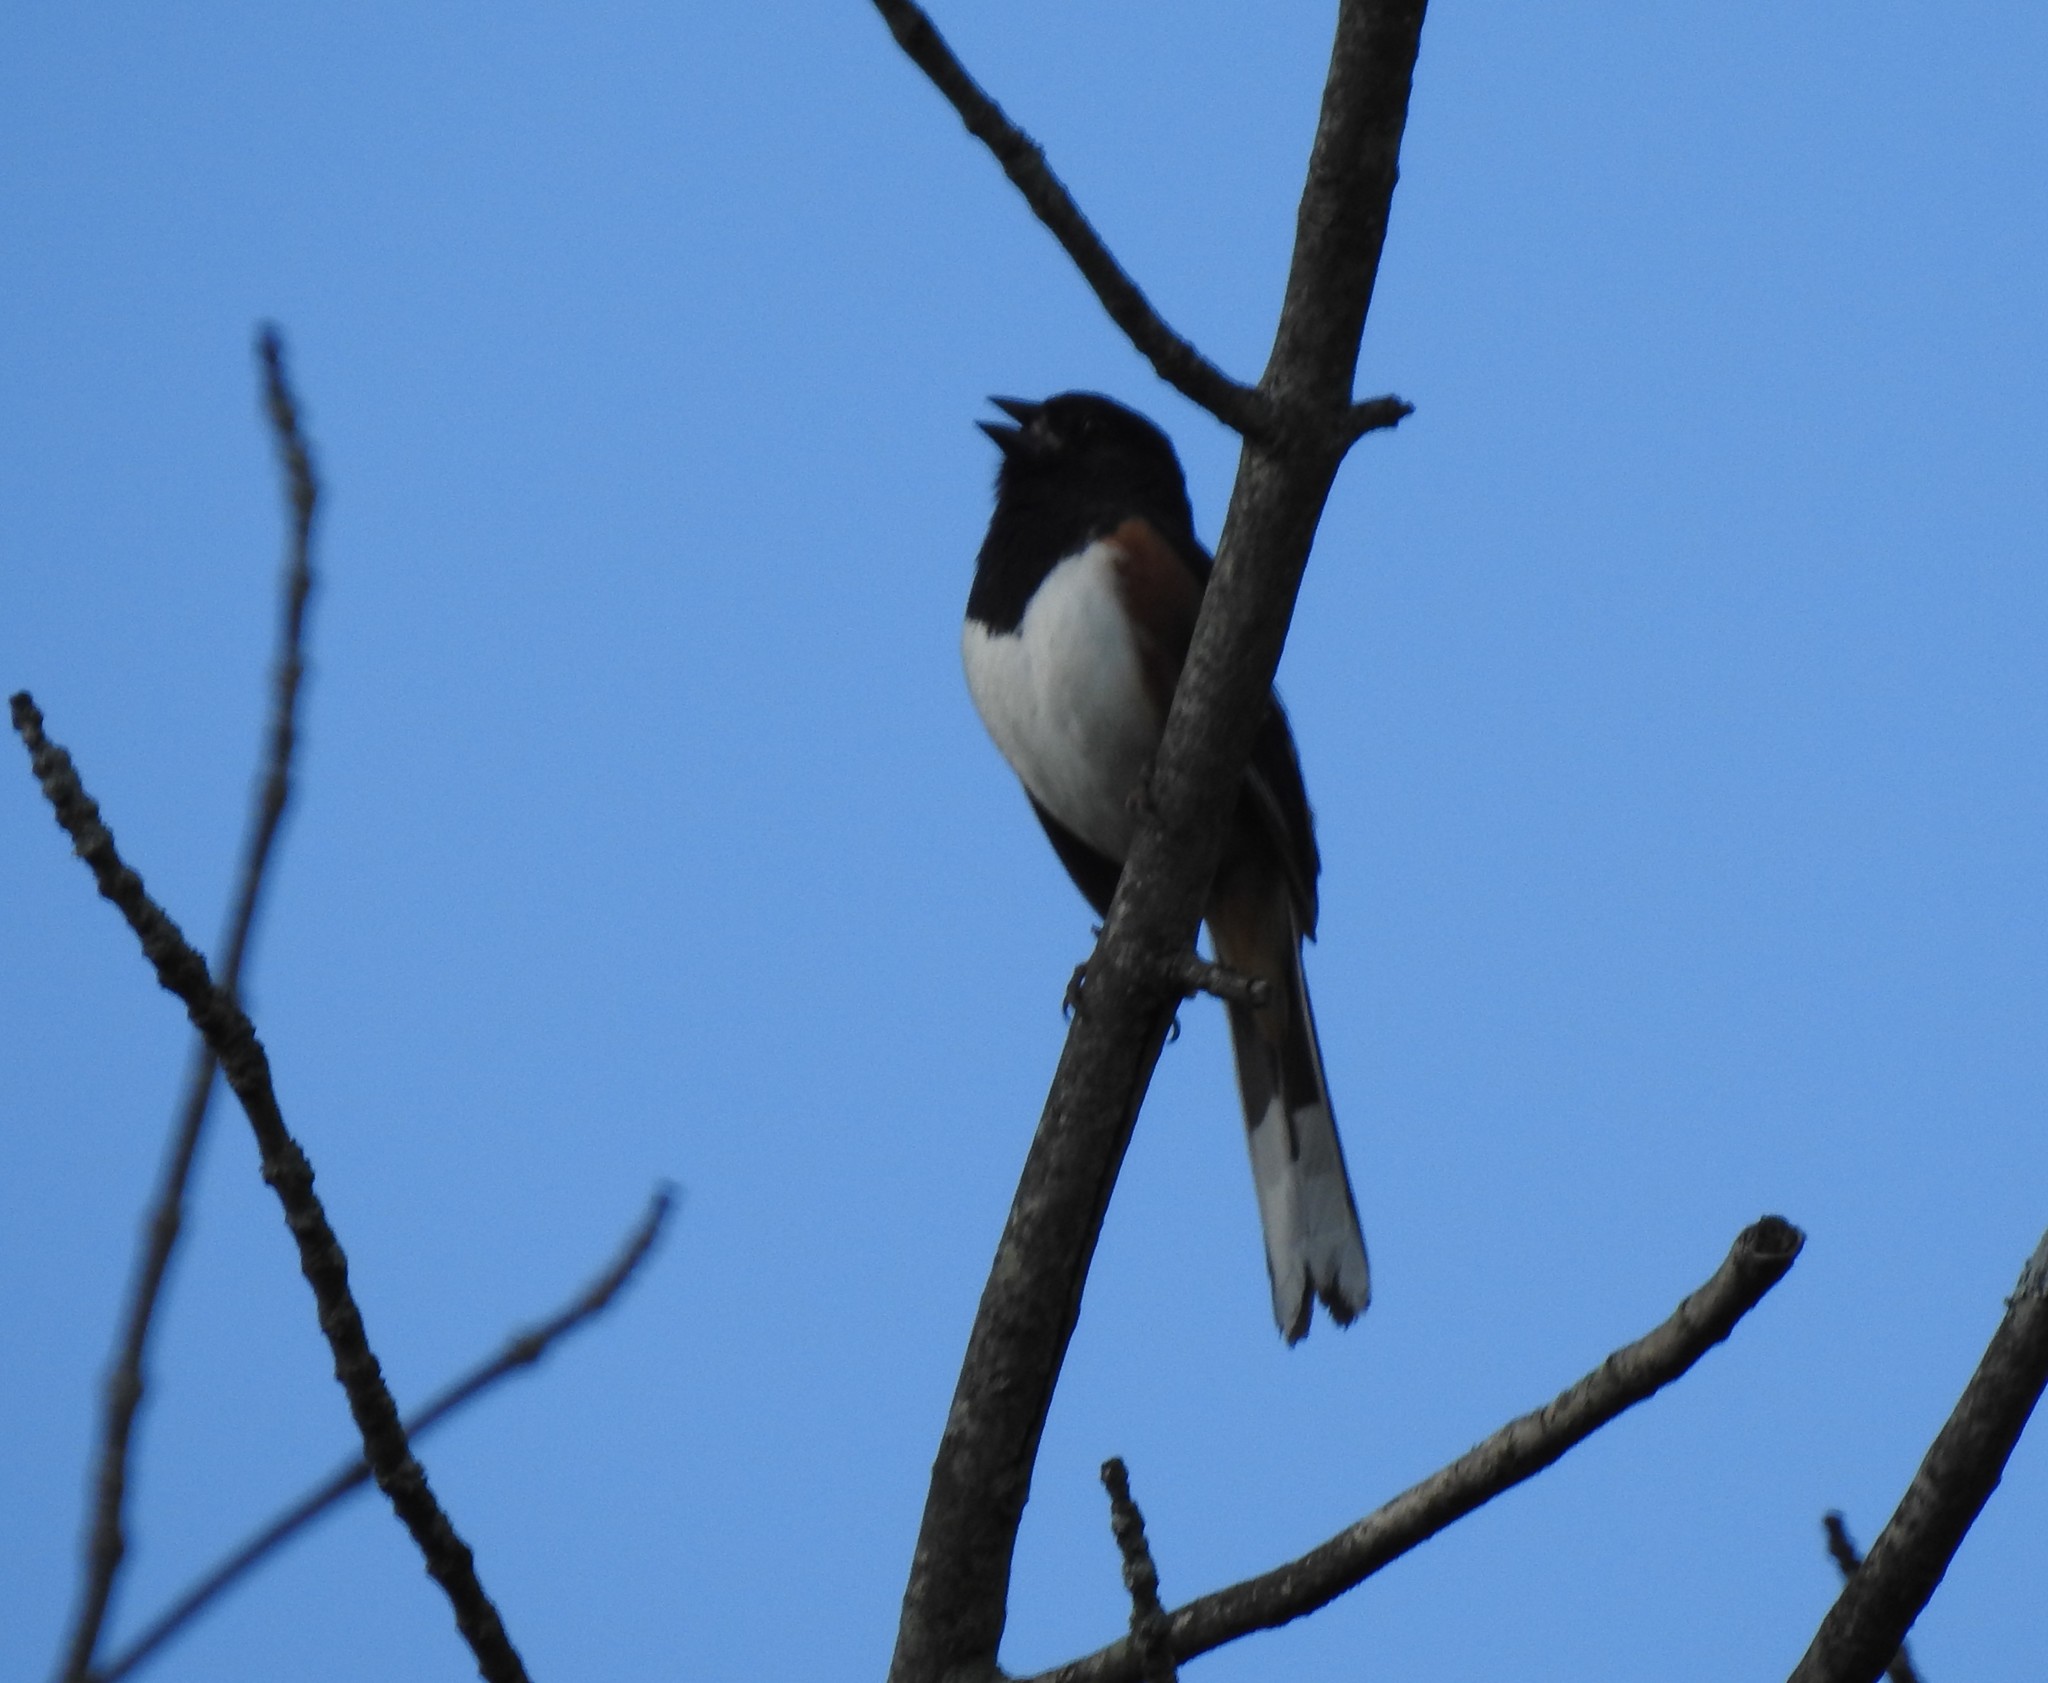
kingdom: Animalia
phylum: Chordata
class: Aves
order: Passeriformes
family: Passerellidae
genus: Pipilo
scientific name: Pipilo erythrophthalmus
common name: Eastern towhee
